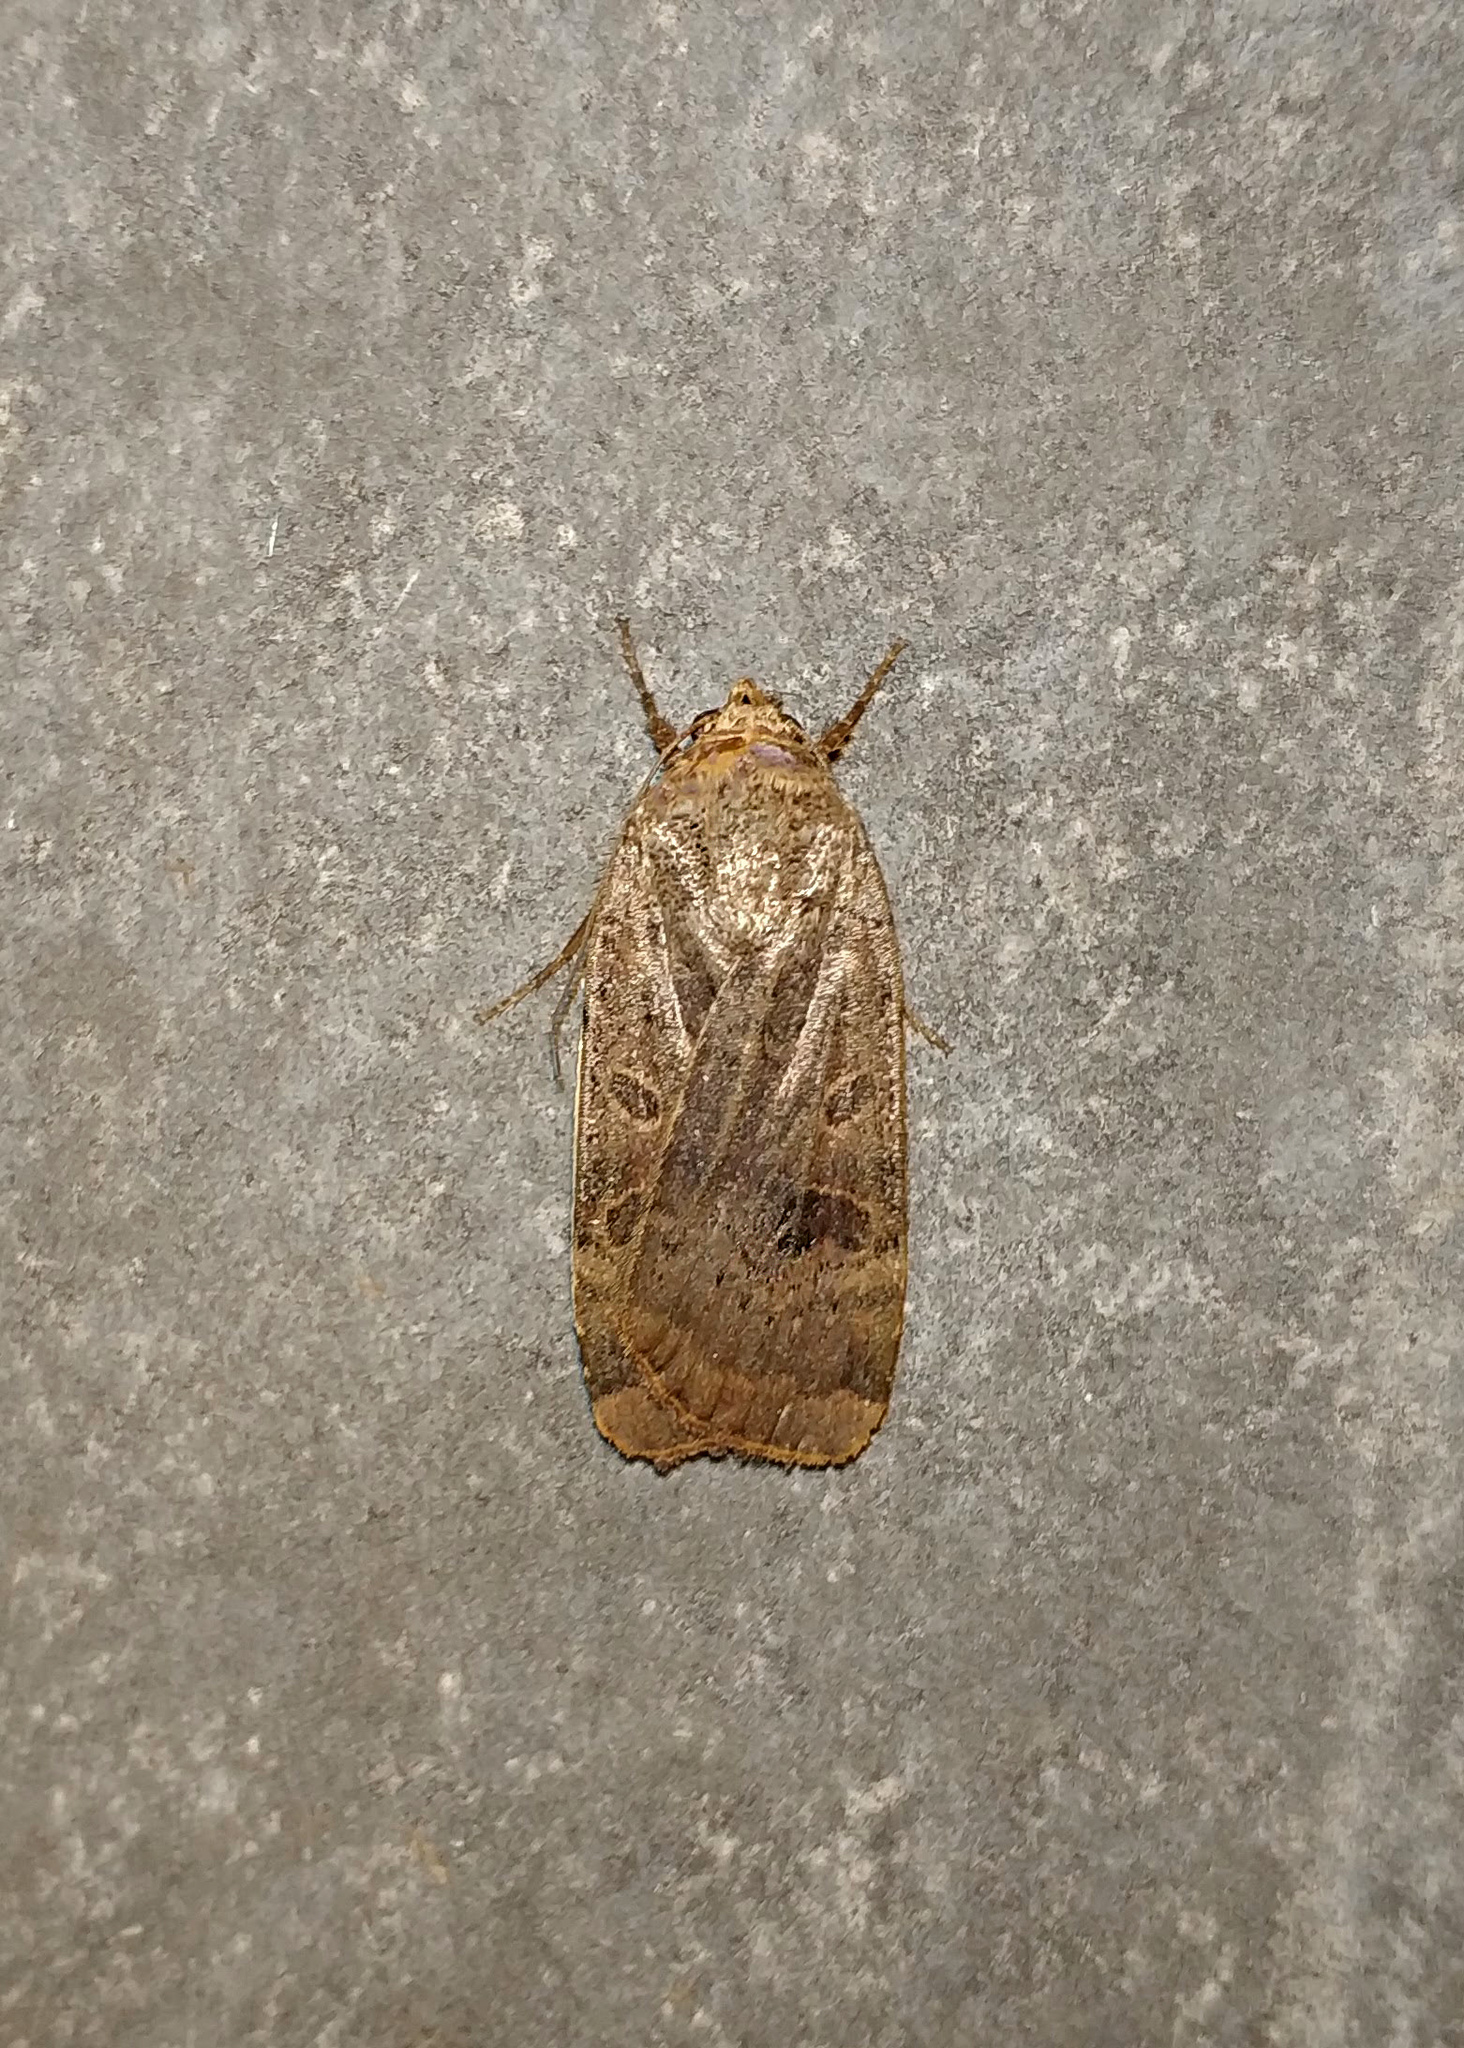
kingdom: Animalia
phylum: Arthropoda
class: Insecta
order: Lepidoptera
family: Noctuidae
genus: Noctua
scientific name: Noctua interposita
